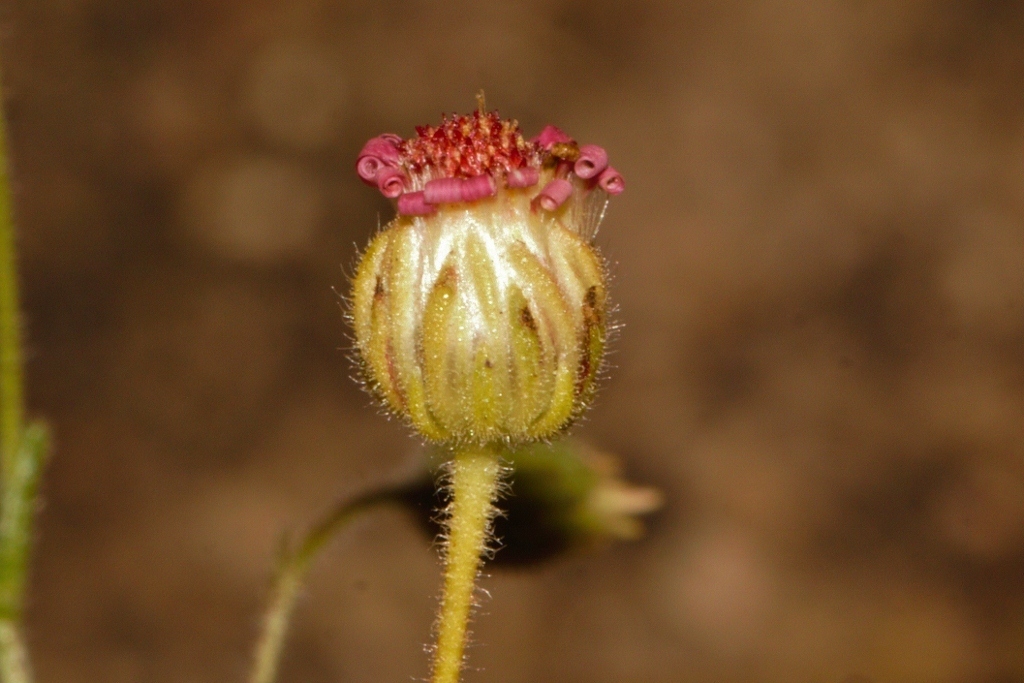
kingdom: Plantae
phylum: Tracheophyta
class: Magnoliopsida
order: Asterales
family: Asteraceae
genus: Felicia
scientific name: Felicia welwitschii
